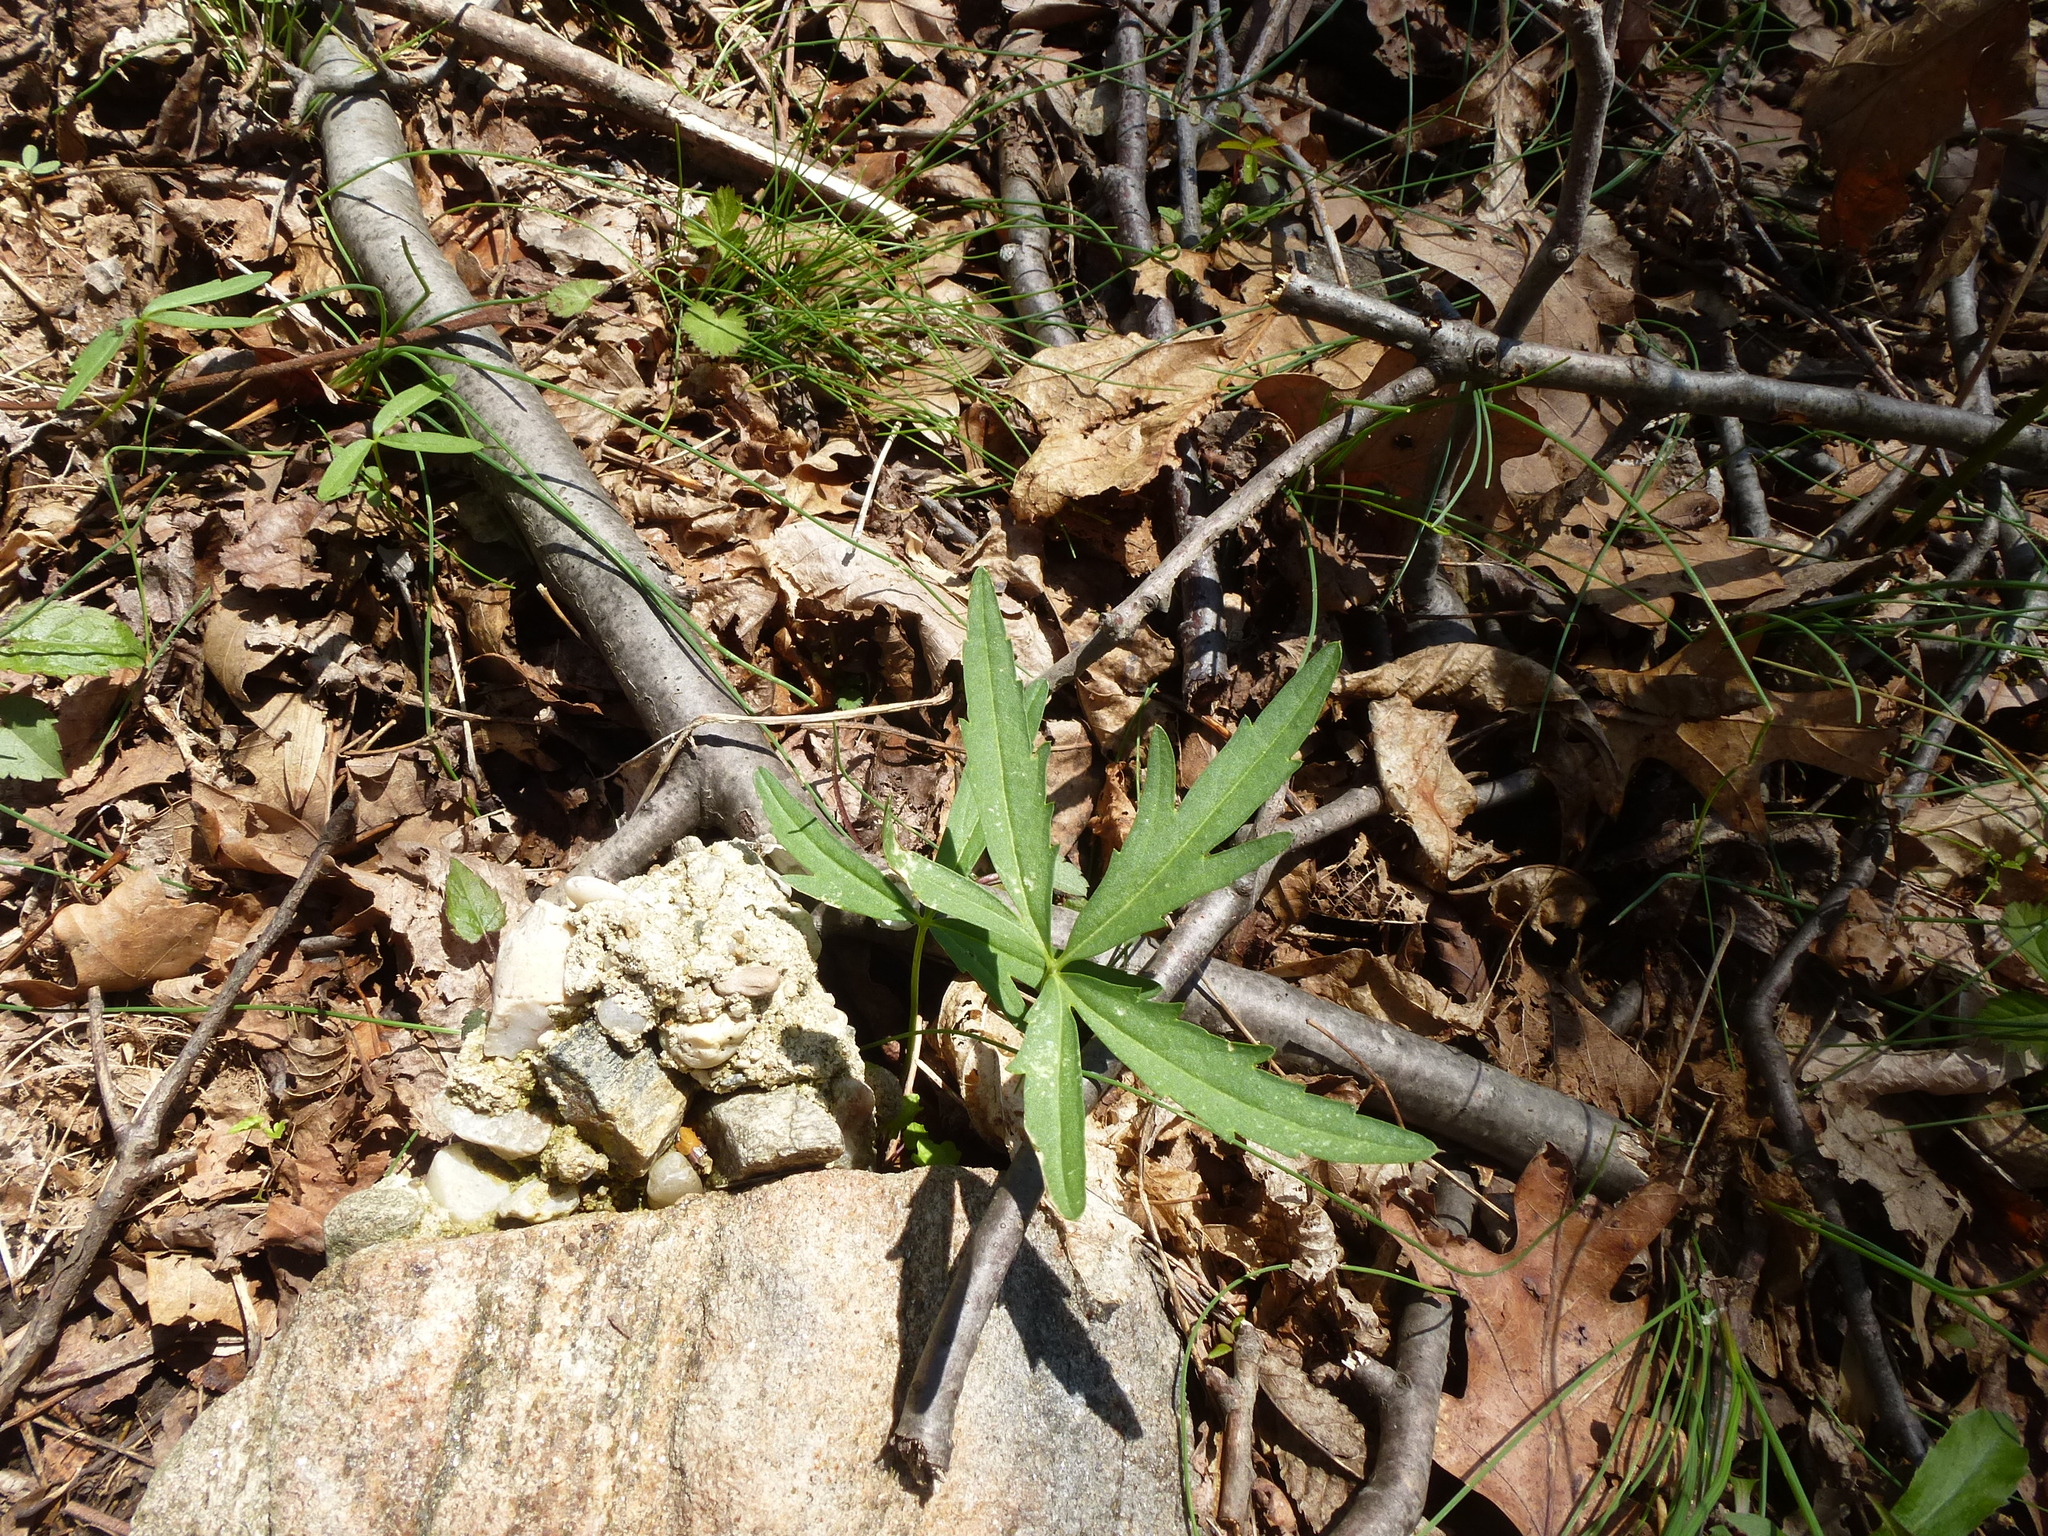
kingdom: Plantae
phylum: Tracheophyta
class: Magnoliopsida
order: Brassicales
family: Brassicaceae
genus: Cardamine
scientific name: Cardamine concatenata
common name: Cut-leaf toothcup
